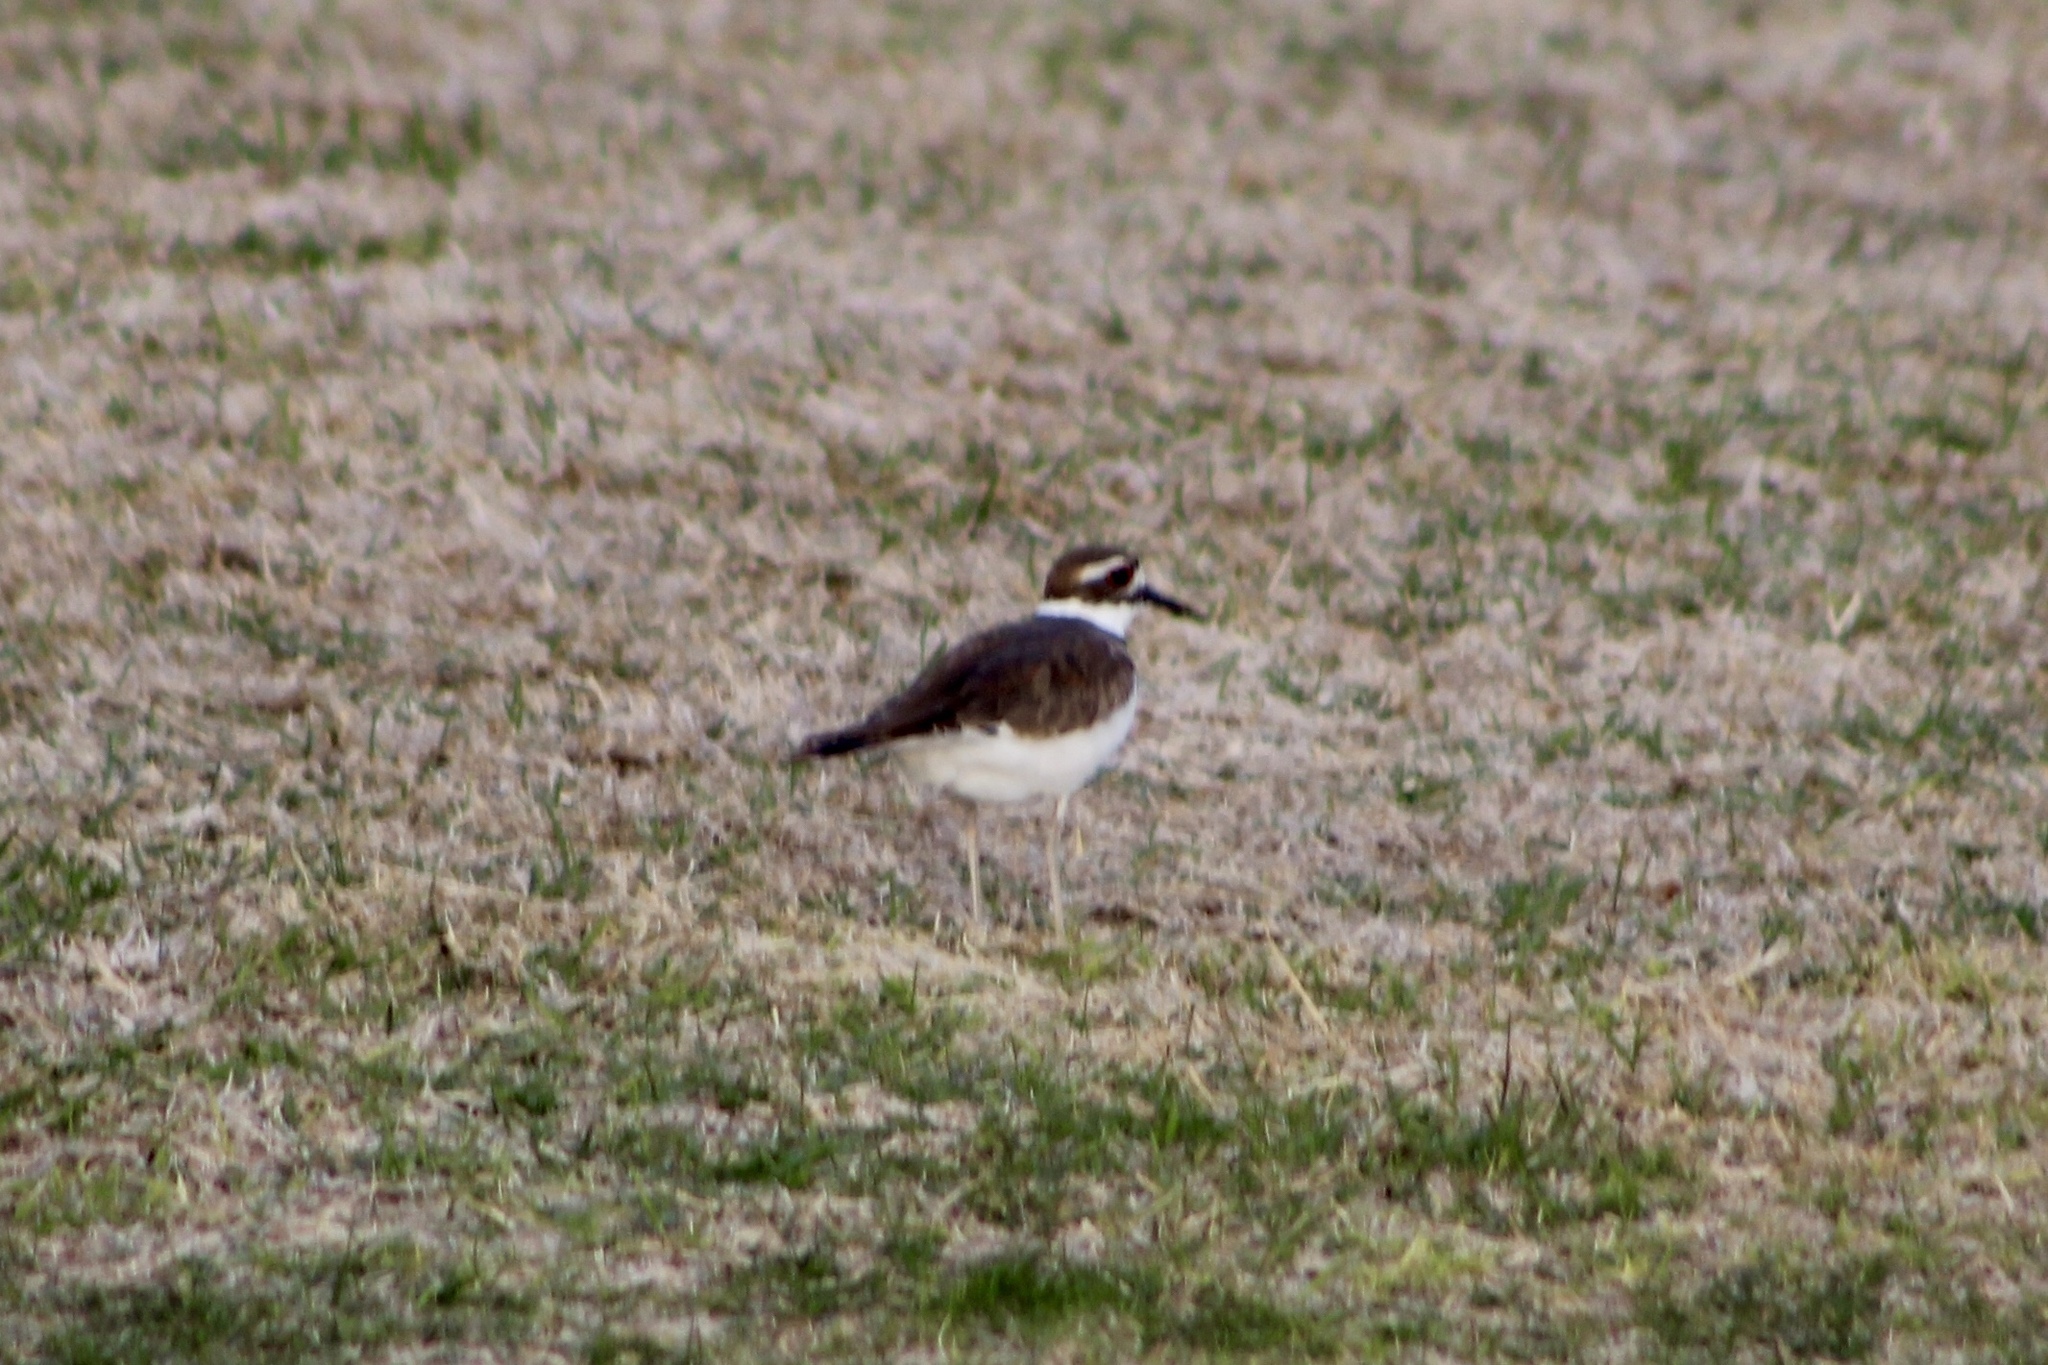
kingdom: Animalia
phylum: Chordata
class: Aves
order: Charadriiformes
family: Charadriidae
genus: Charadrius
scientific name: Charadrius vociferus
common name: Killdeer
